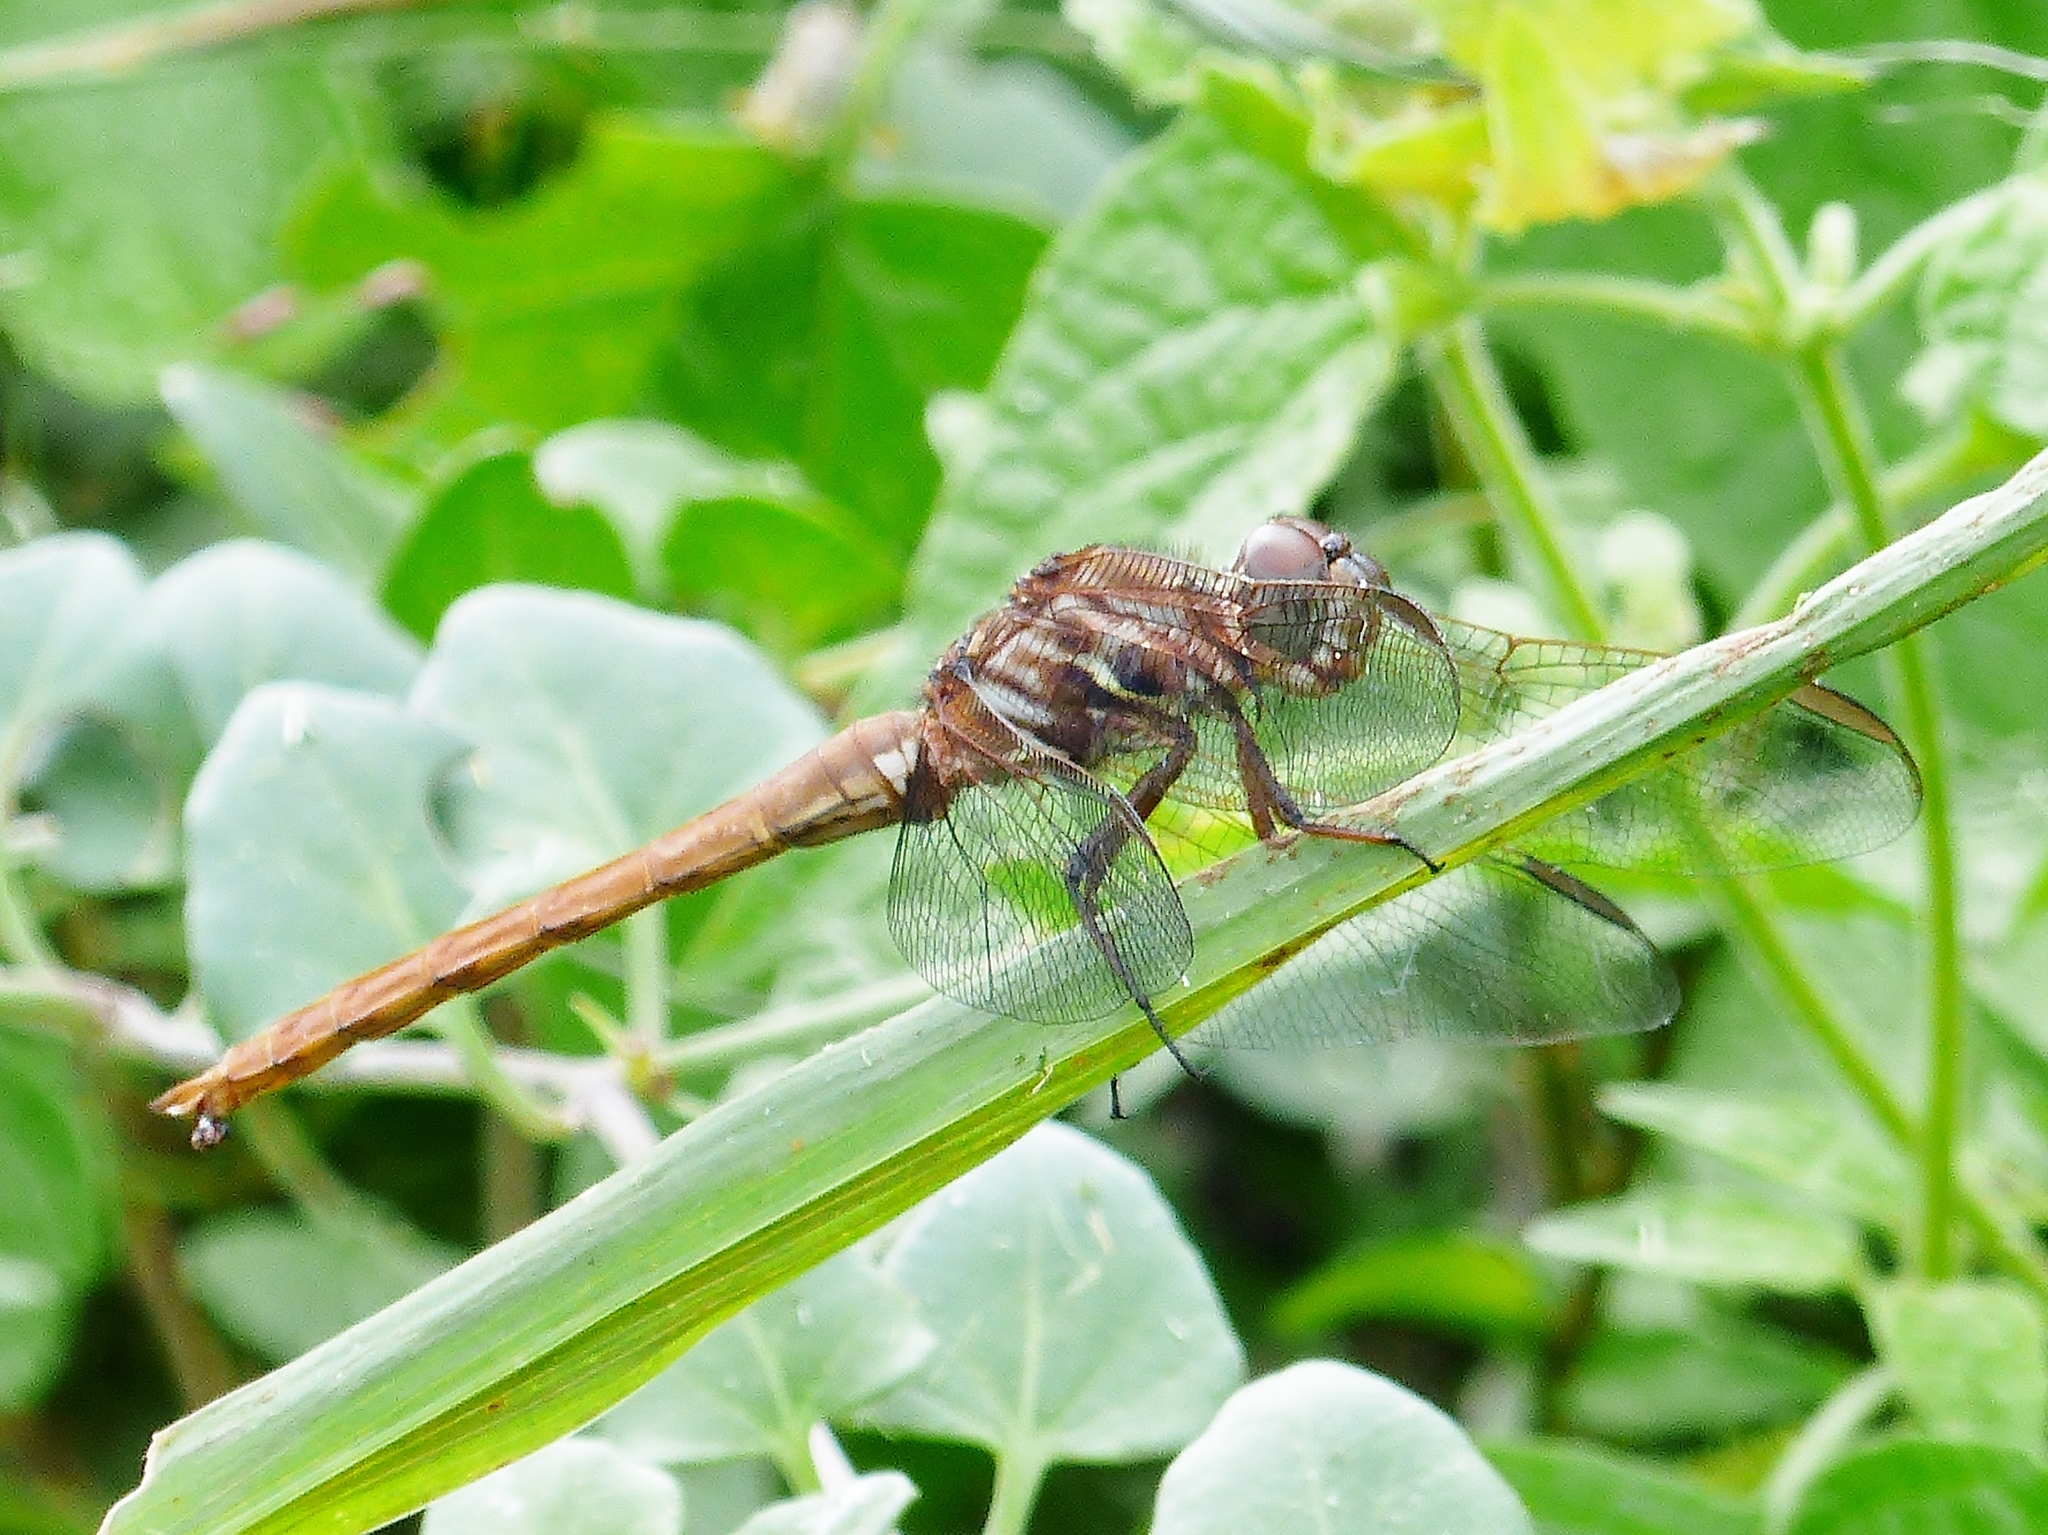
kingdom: Animalia
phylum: Arthropoda
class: Insecta
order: Odonata
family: Libellulidae
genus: Orthemis
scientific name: Orthemis ferruginea
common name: Roseate skimmer
